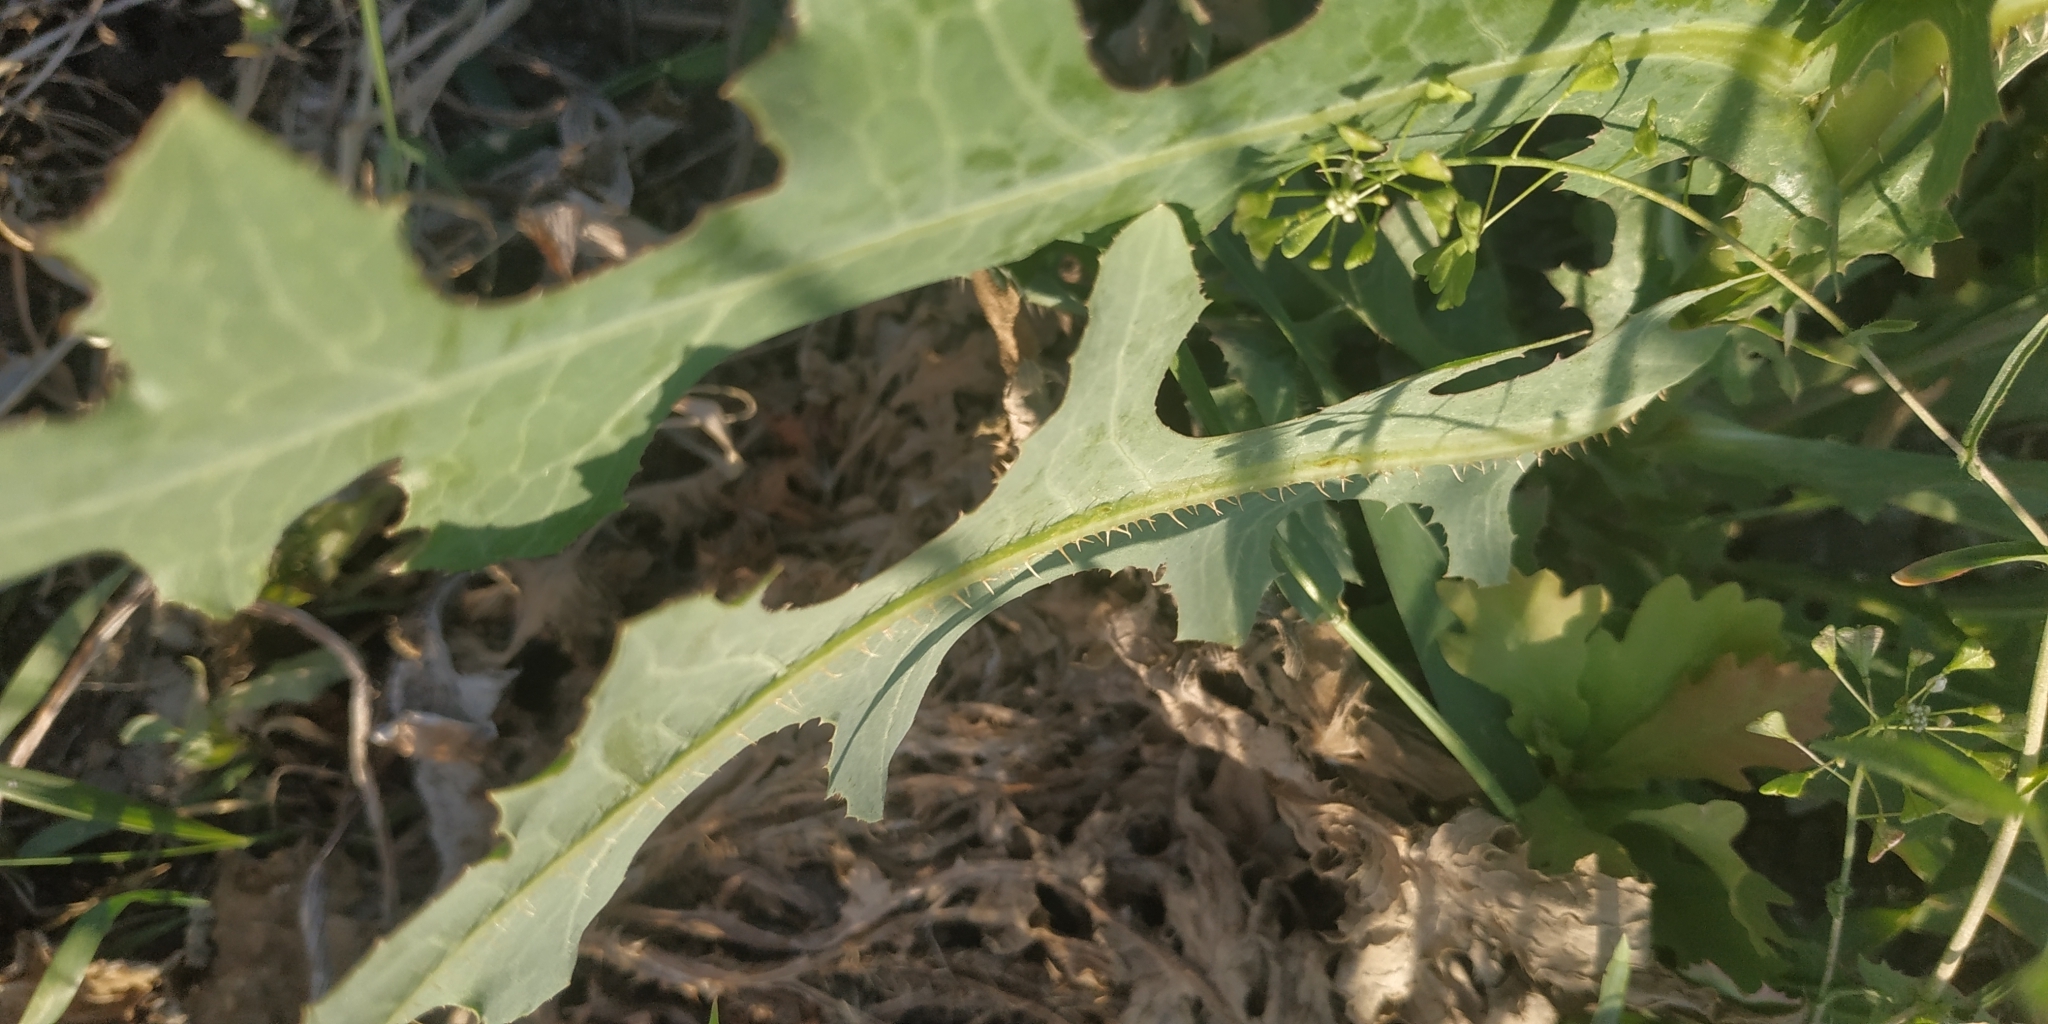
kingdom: Plantae
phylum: Tracheophyta
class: Magnoliopsida
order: Asterales
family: Asteraceae
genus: Lactuca
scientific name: Lactuca serriola
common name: Prickly lettuce
